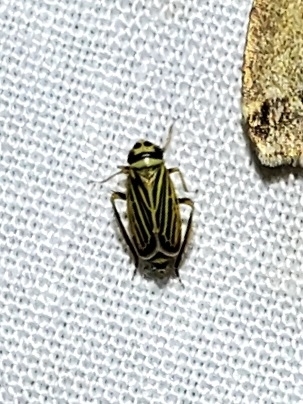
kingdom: Animalia
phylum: Arthropoda
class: Insecta
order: Hemiptera
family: Cicadellidae
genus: Amblysellus
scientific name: Amblysellus curtisii
